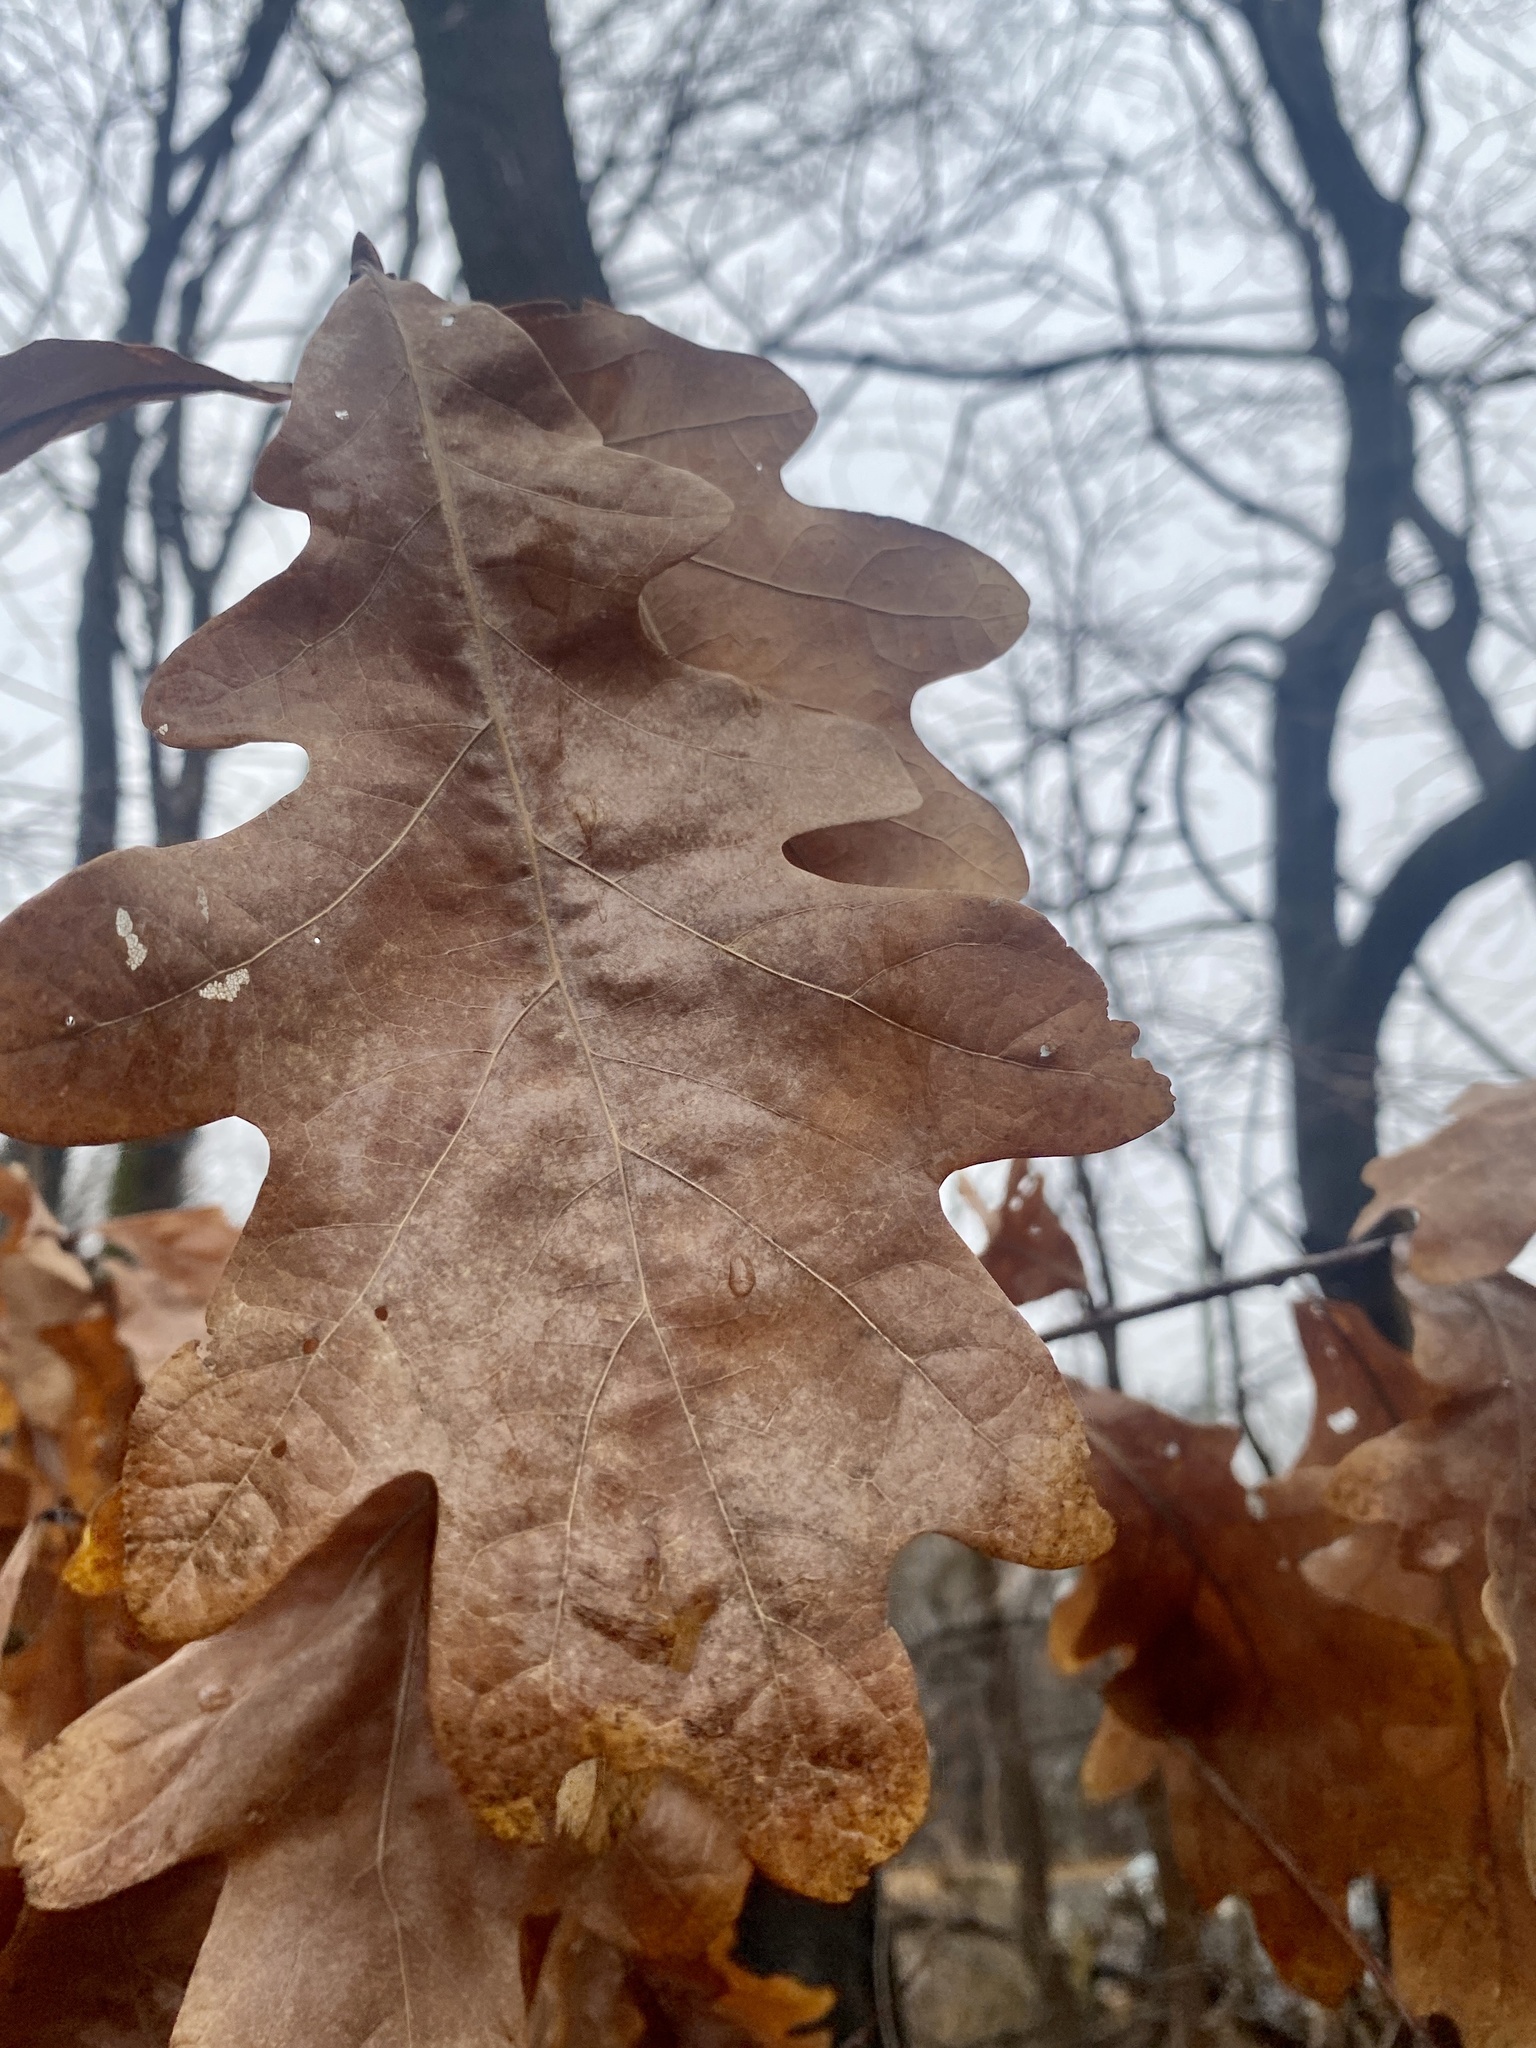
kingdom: Plantae
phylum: Tracheophyta
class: Magnoliopsida
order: Fagales
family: Fagaceae
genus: Quercus
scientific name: Quercus alba
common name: White oak
